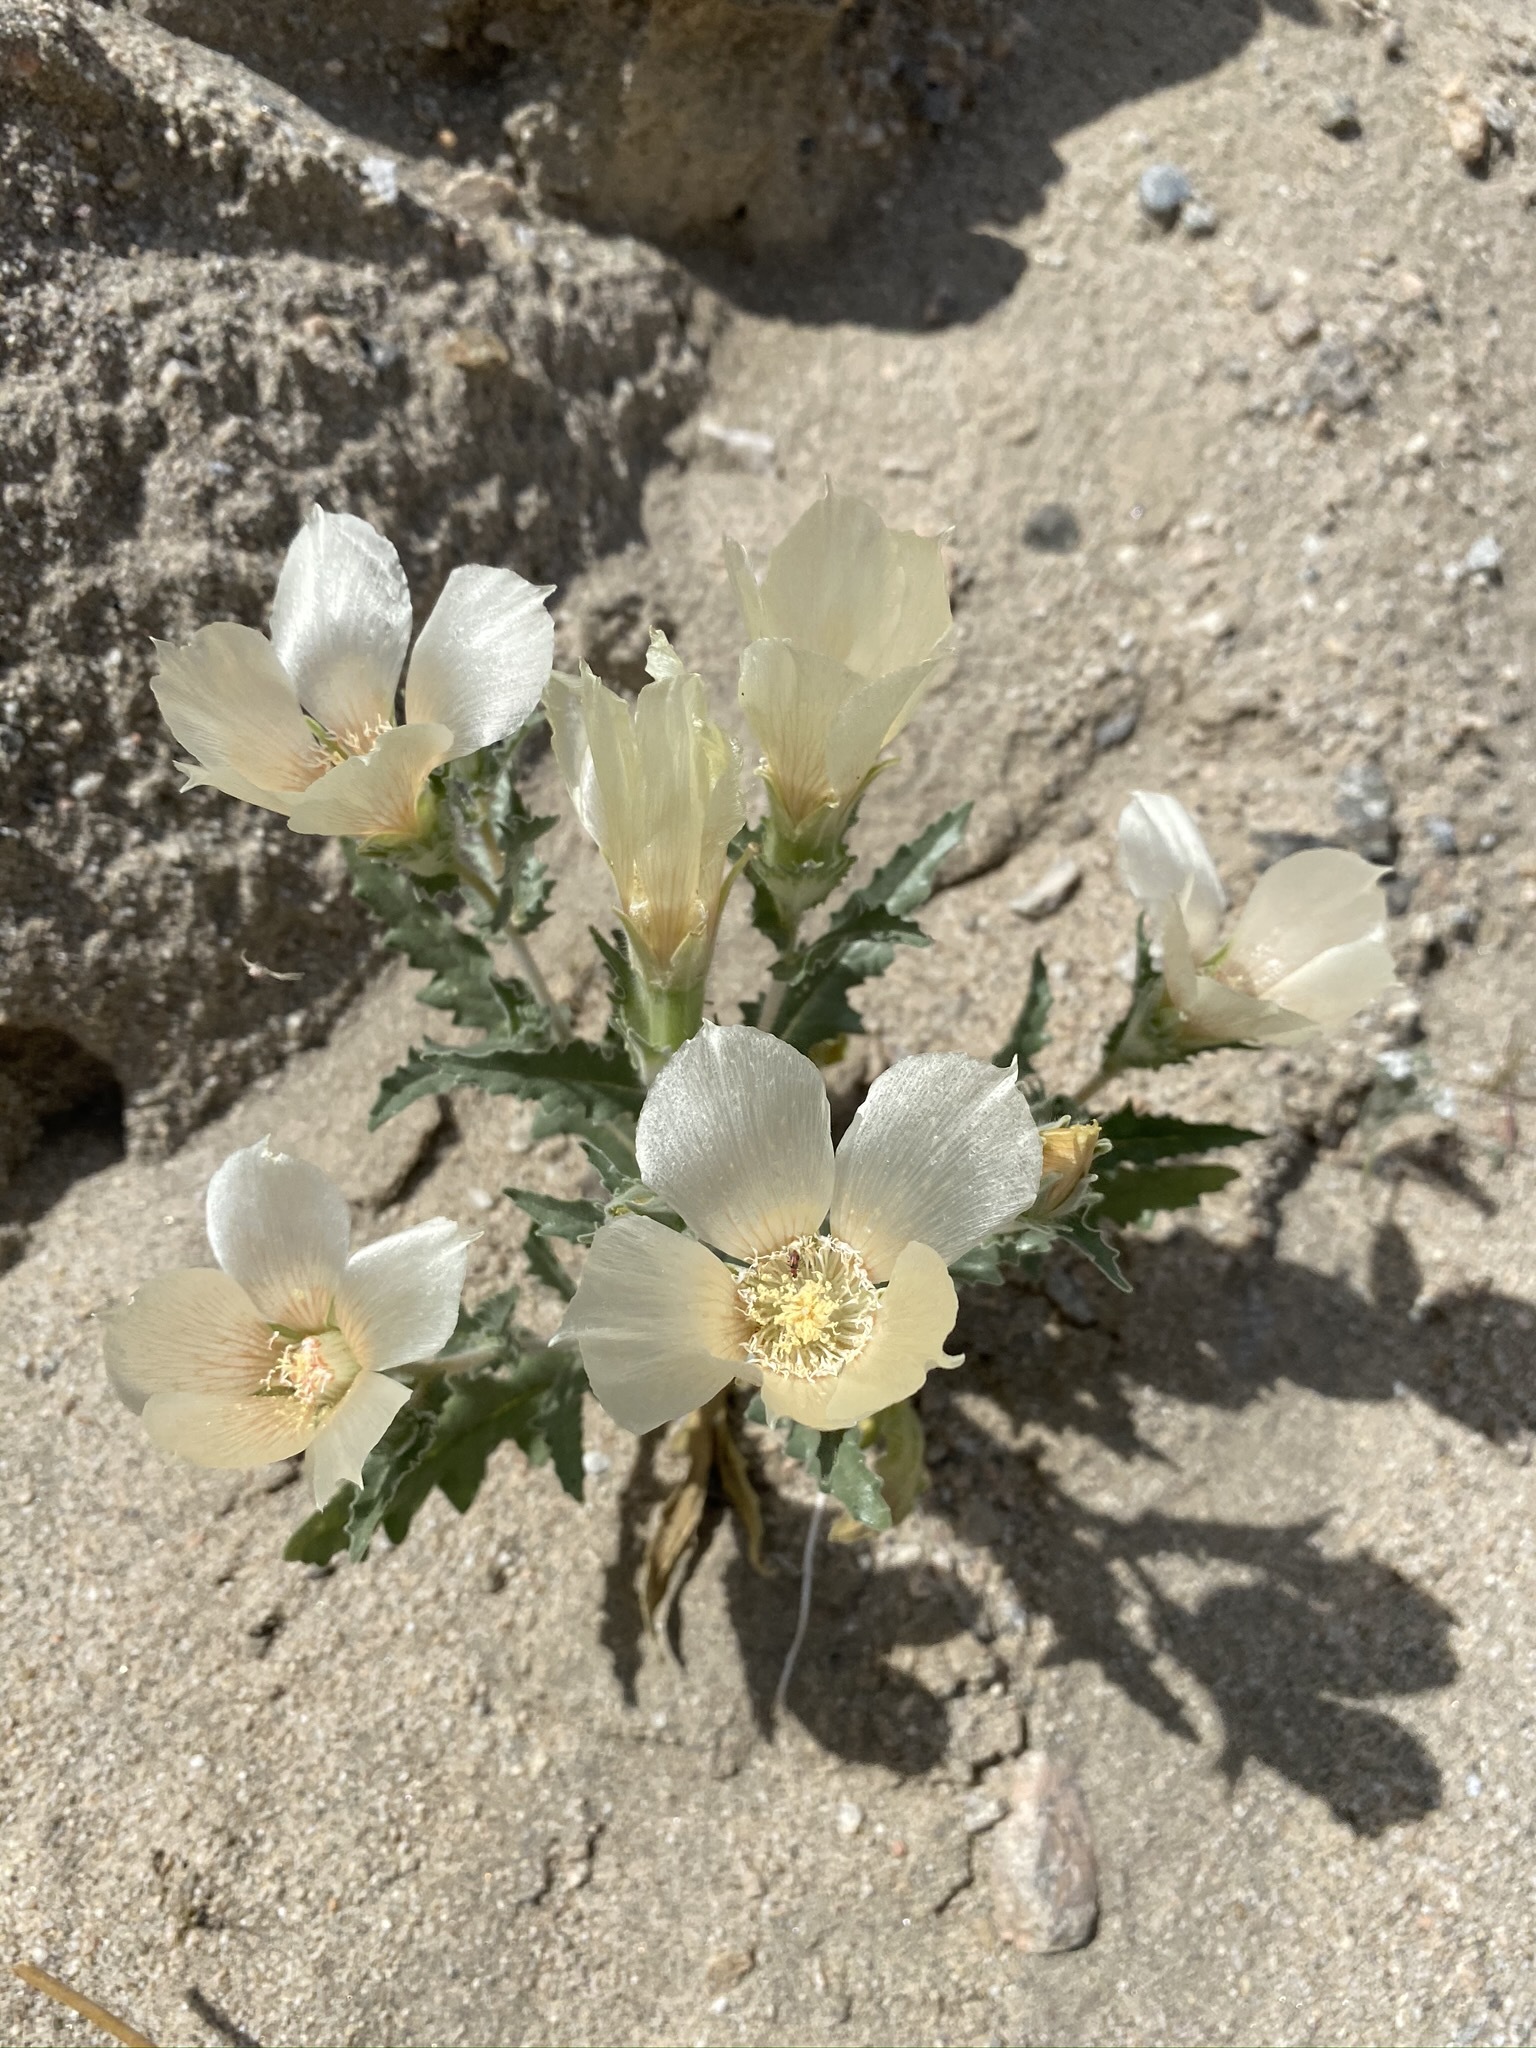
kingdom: Plantae
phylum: Tracheophyta
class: Magnoliopsida
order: Cornales
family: Loasaceae
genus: Mentzelia
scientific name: Mentzelia involucrata
